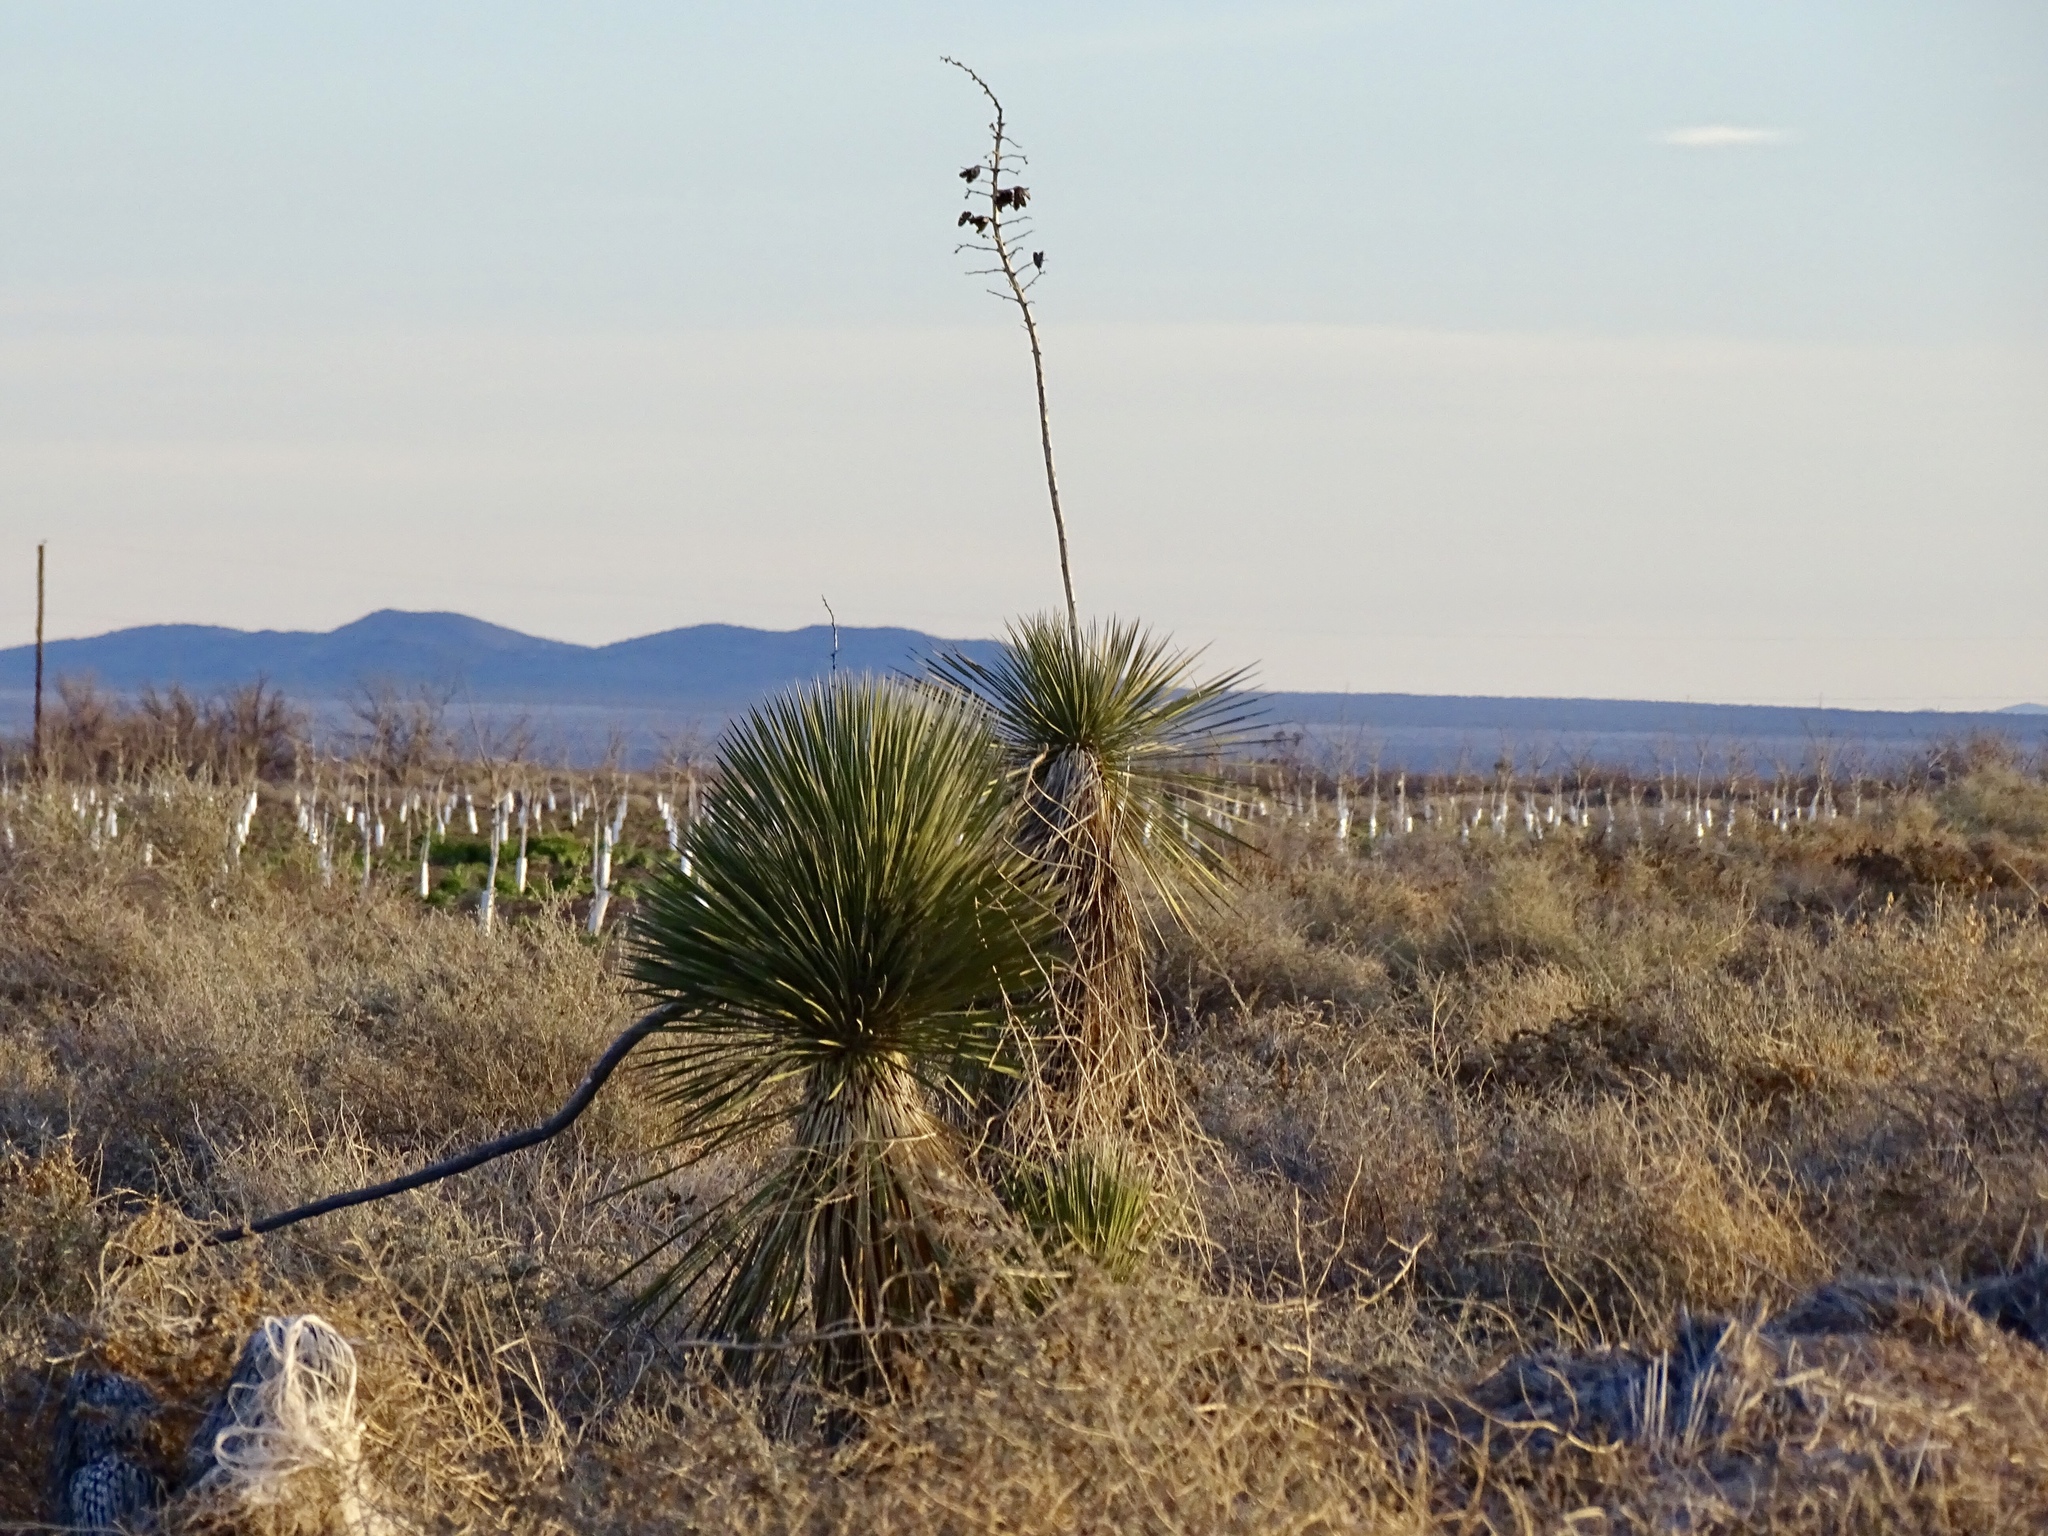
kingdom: Plantae
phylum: Tracheophyta
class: Liliopsida
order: Asparagales
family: Asparagaceae
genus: Yucca
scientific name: Yucca elata
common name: Palmella
